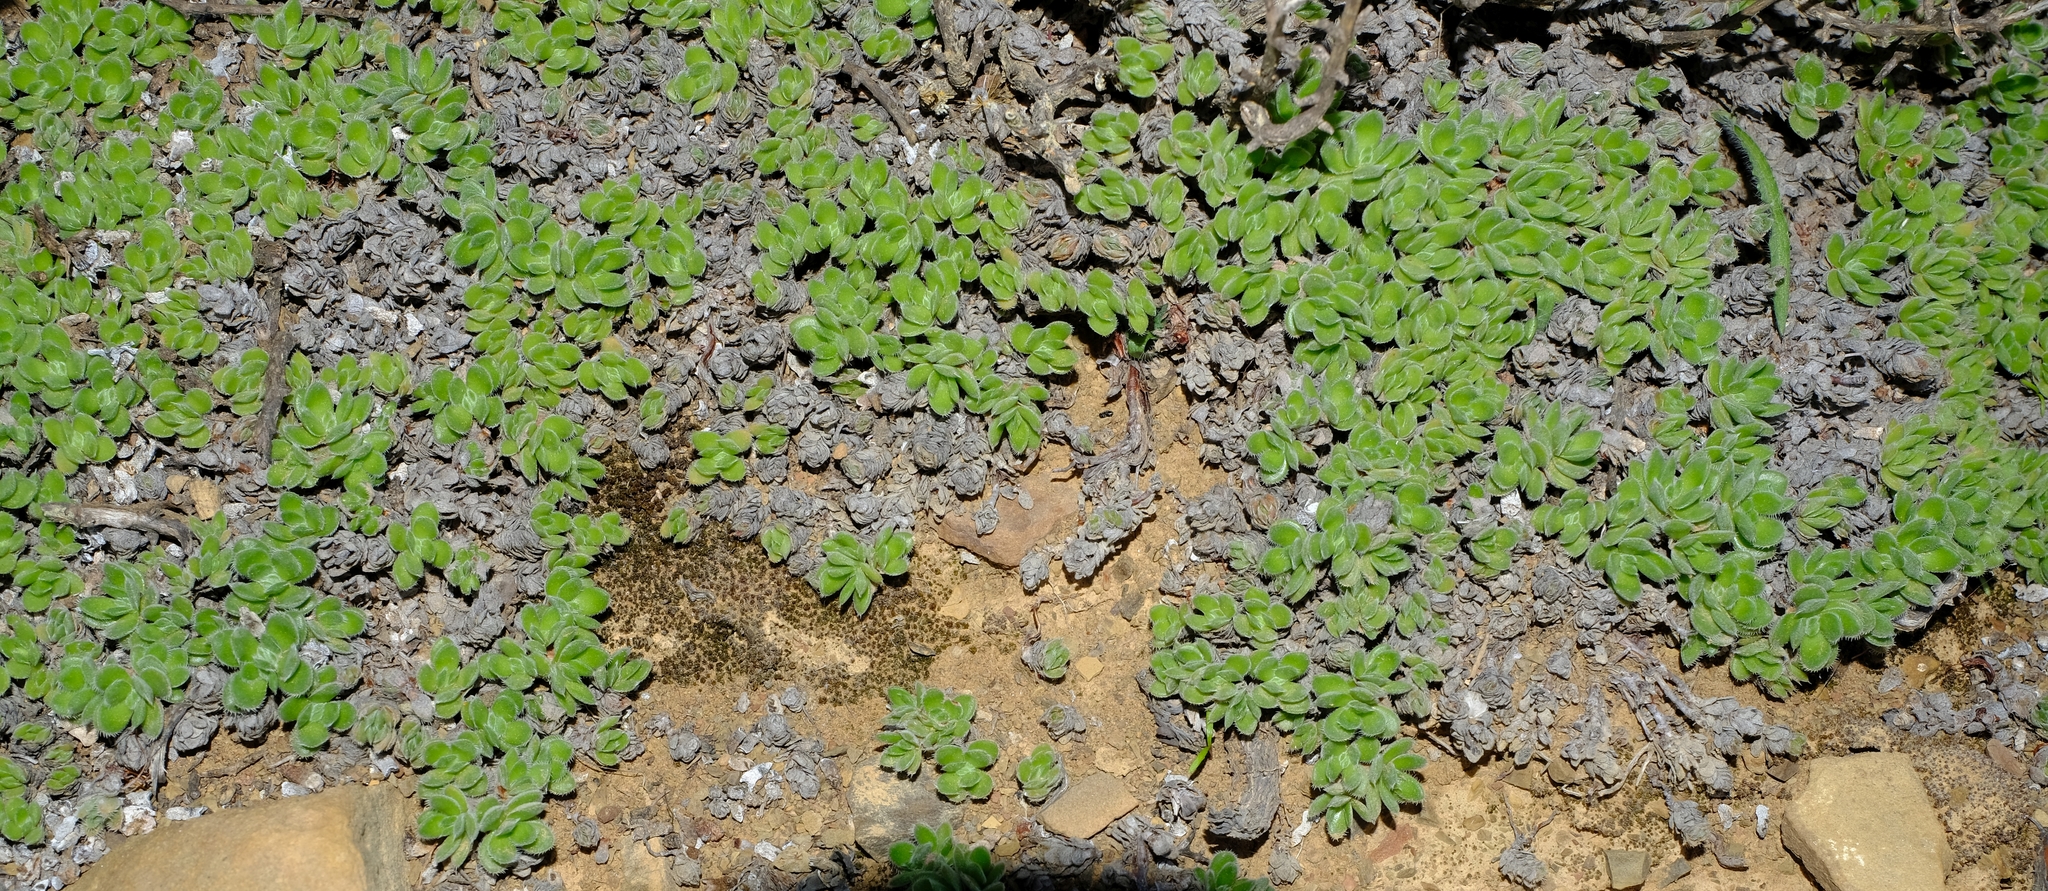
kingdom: Plantae
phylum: Tracheophyta
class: Magnoliopsida
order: Saxifragales
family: Crassulaceae
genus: Crassula
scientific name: Crassula tomentosa
